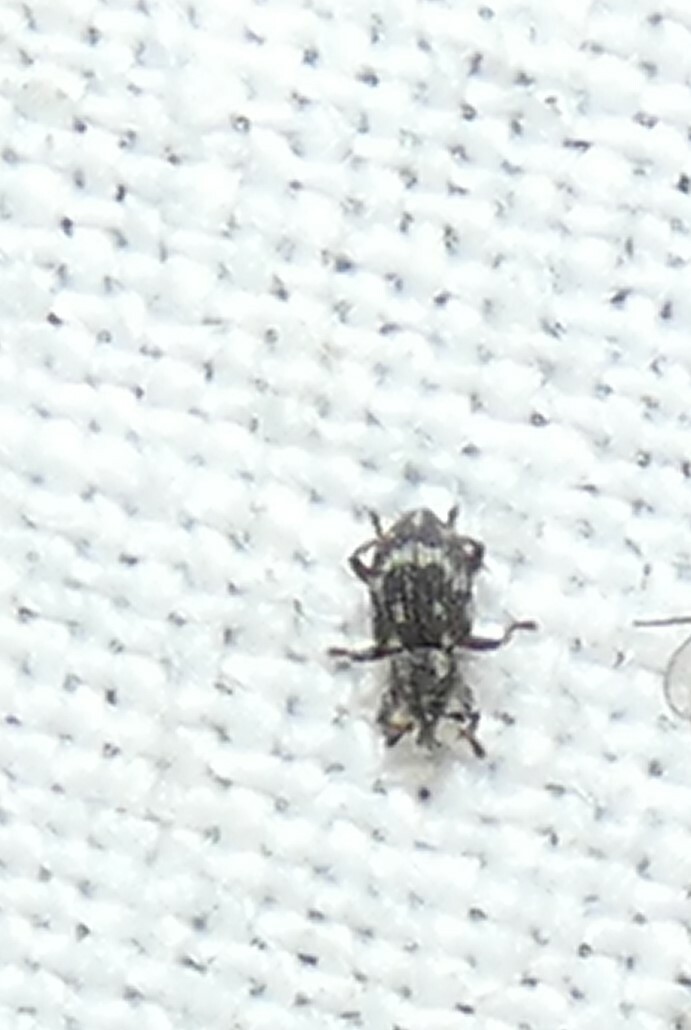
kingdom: Animalia
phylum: Arthropoda
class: Insecta
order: Coleoptera
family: Brachyceridae
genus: Tanysphyrus
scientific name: Tanysphyrus lemnae
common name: Duckweed weevil
